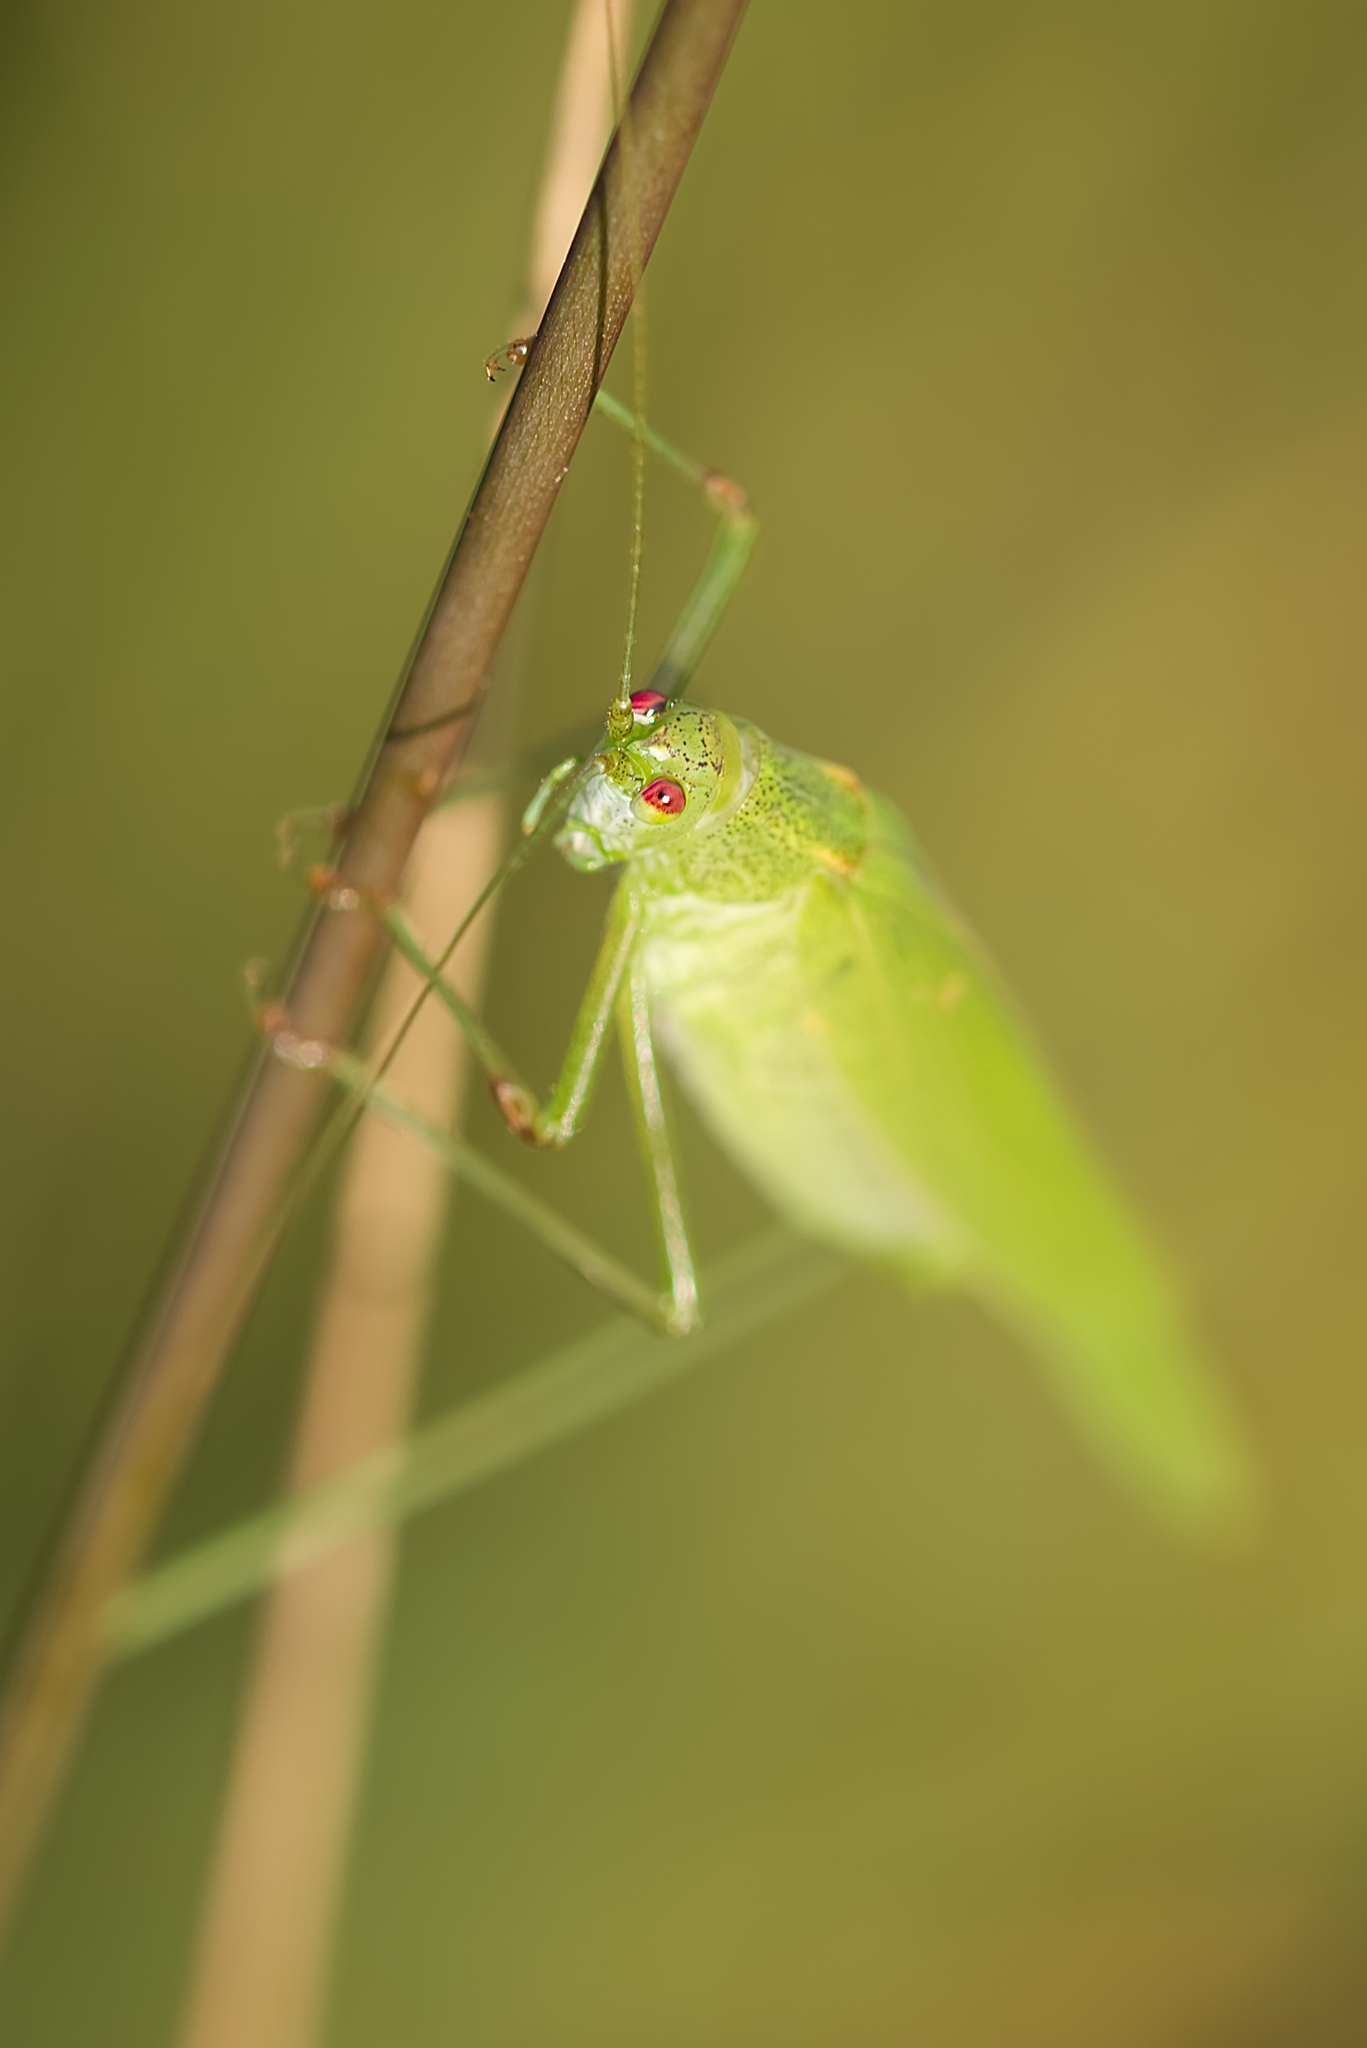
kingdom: Animalia
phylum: Arthropoda
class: Insecta
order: Orthoptera
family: Tettigoniidae
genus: Phaneroptera
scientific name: Phaneroptera falcata
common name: Sickle-bearing bush-cricket
